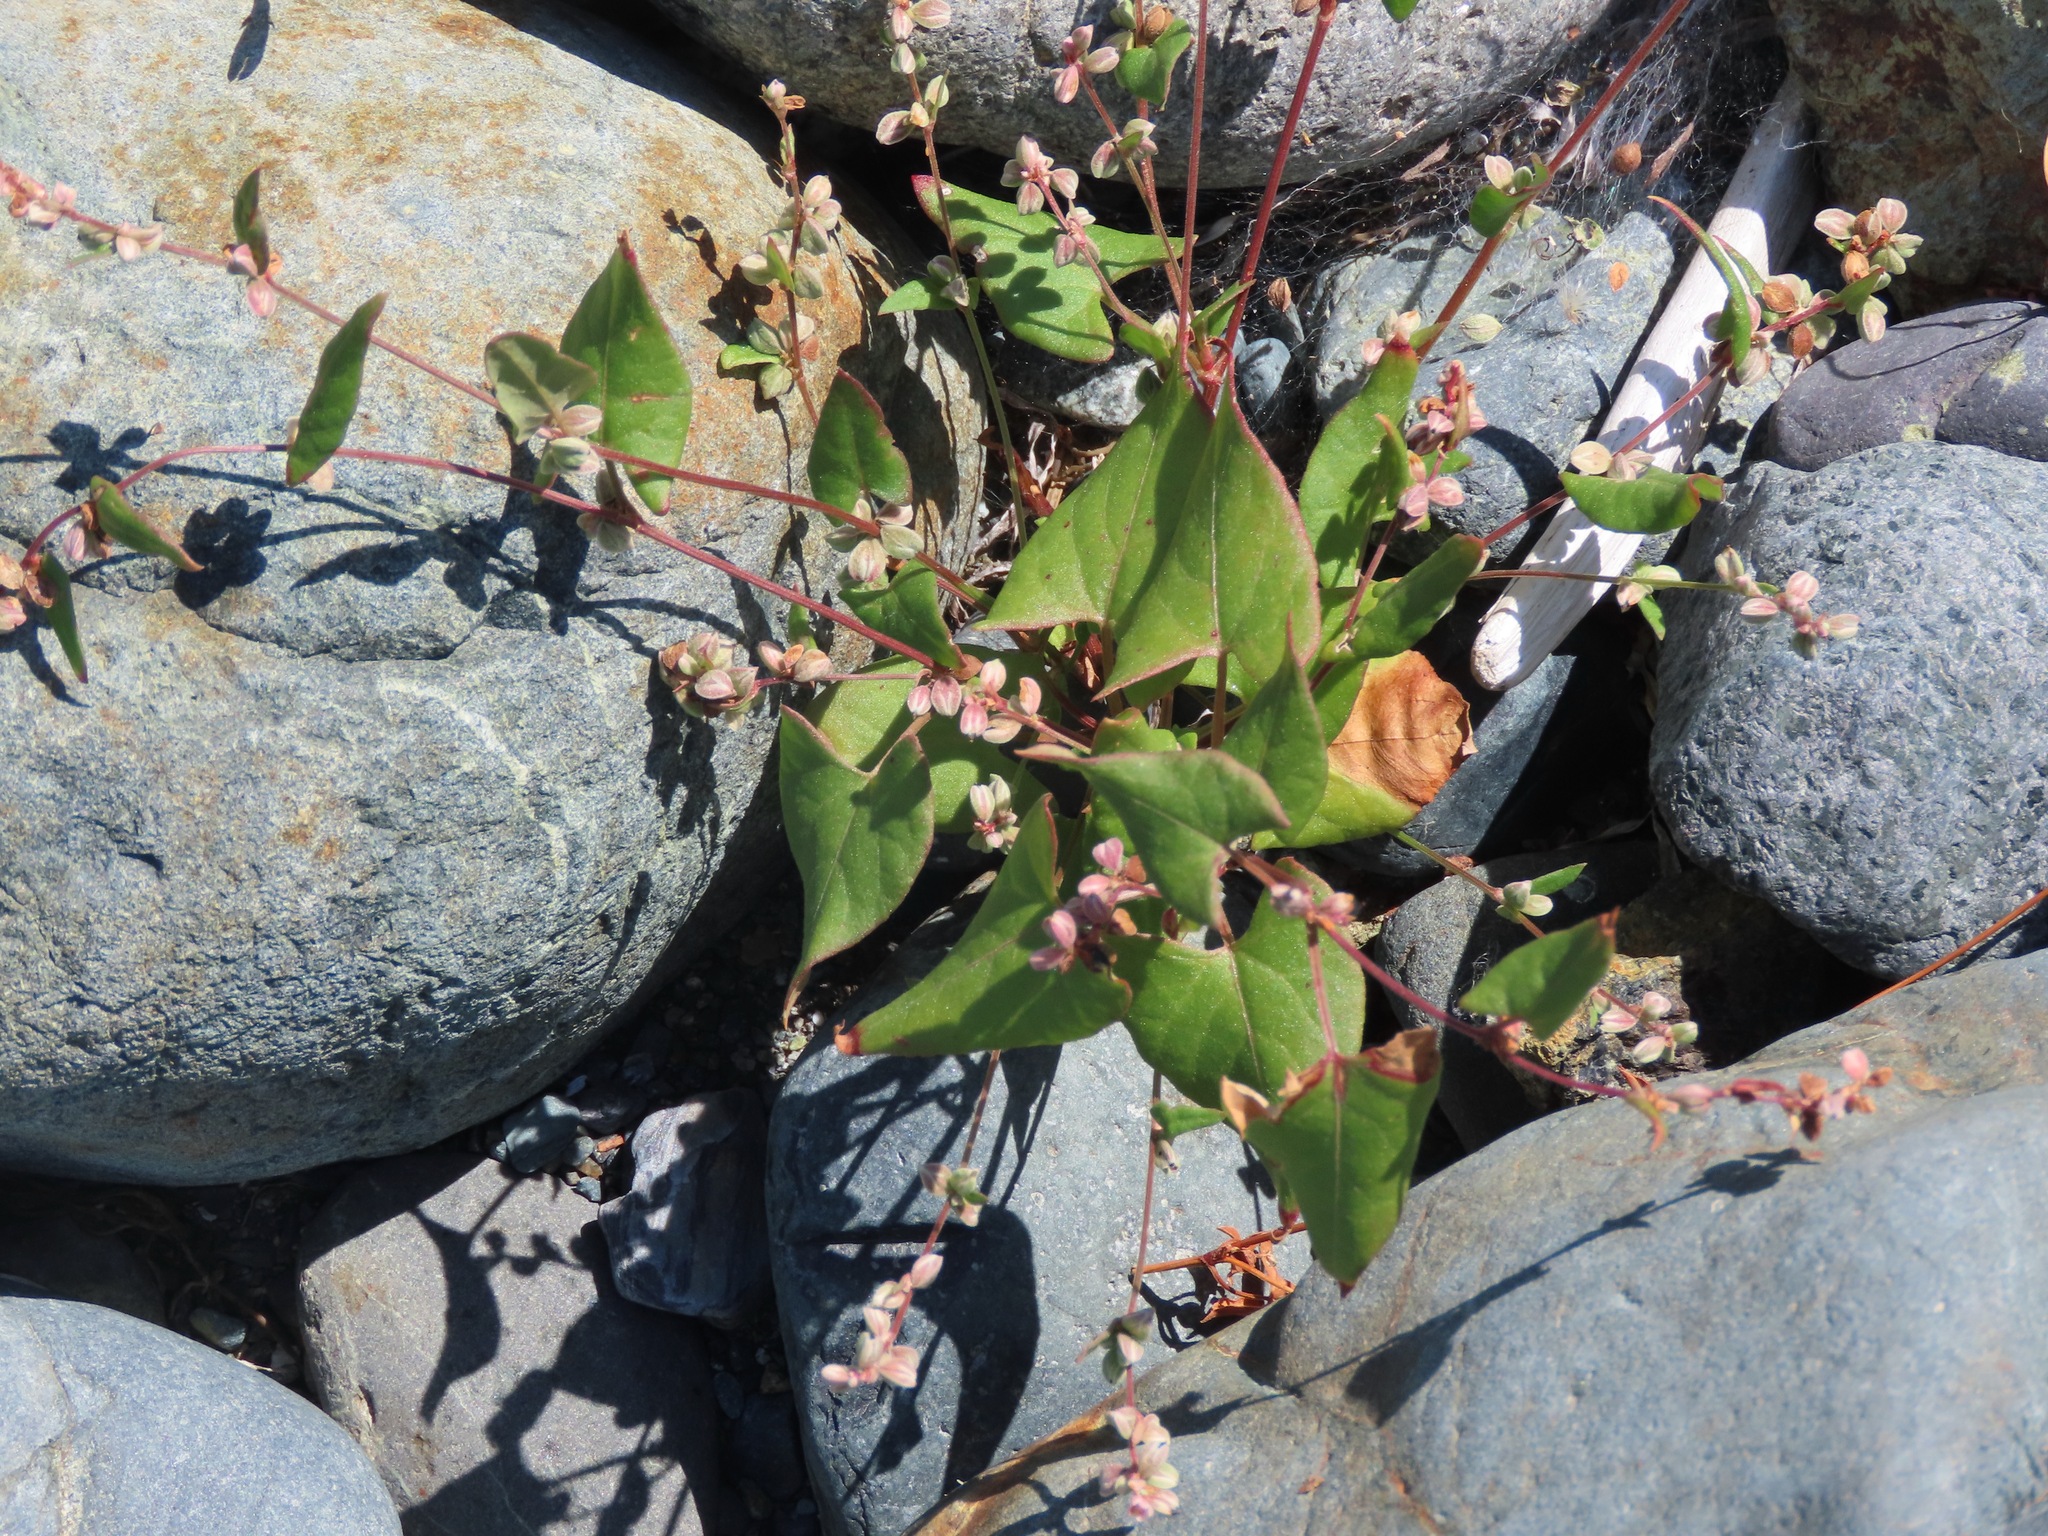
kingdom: Plantae
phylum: Tracheophyta
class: Magnoliopsida
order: Caryophyllales
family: Polygonaceae
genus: Fallopia
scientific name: Fallopia convolvulus
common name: Black bindweed
